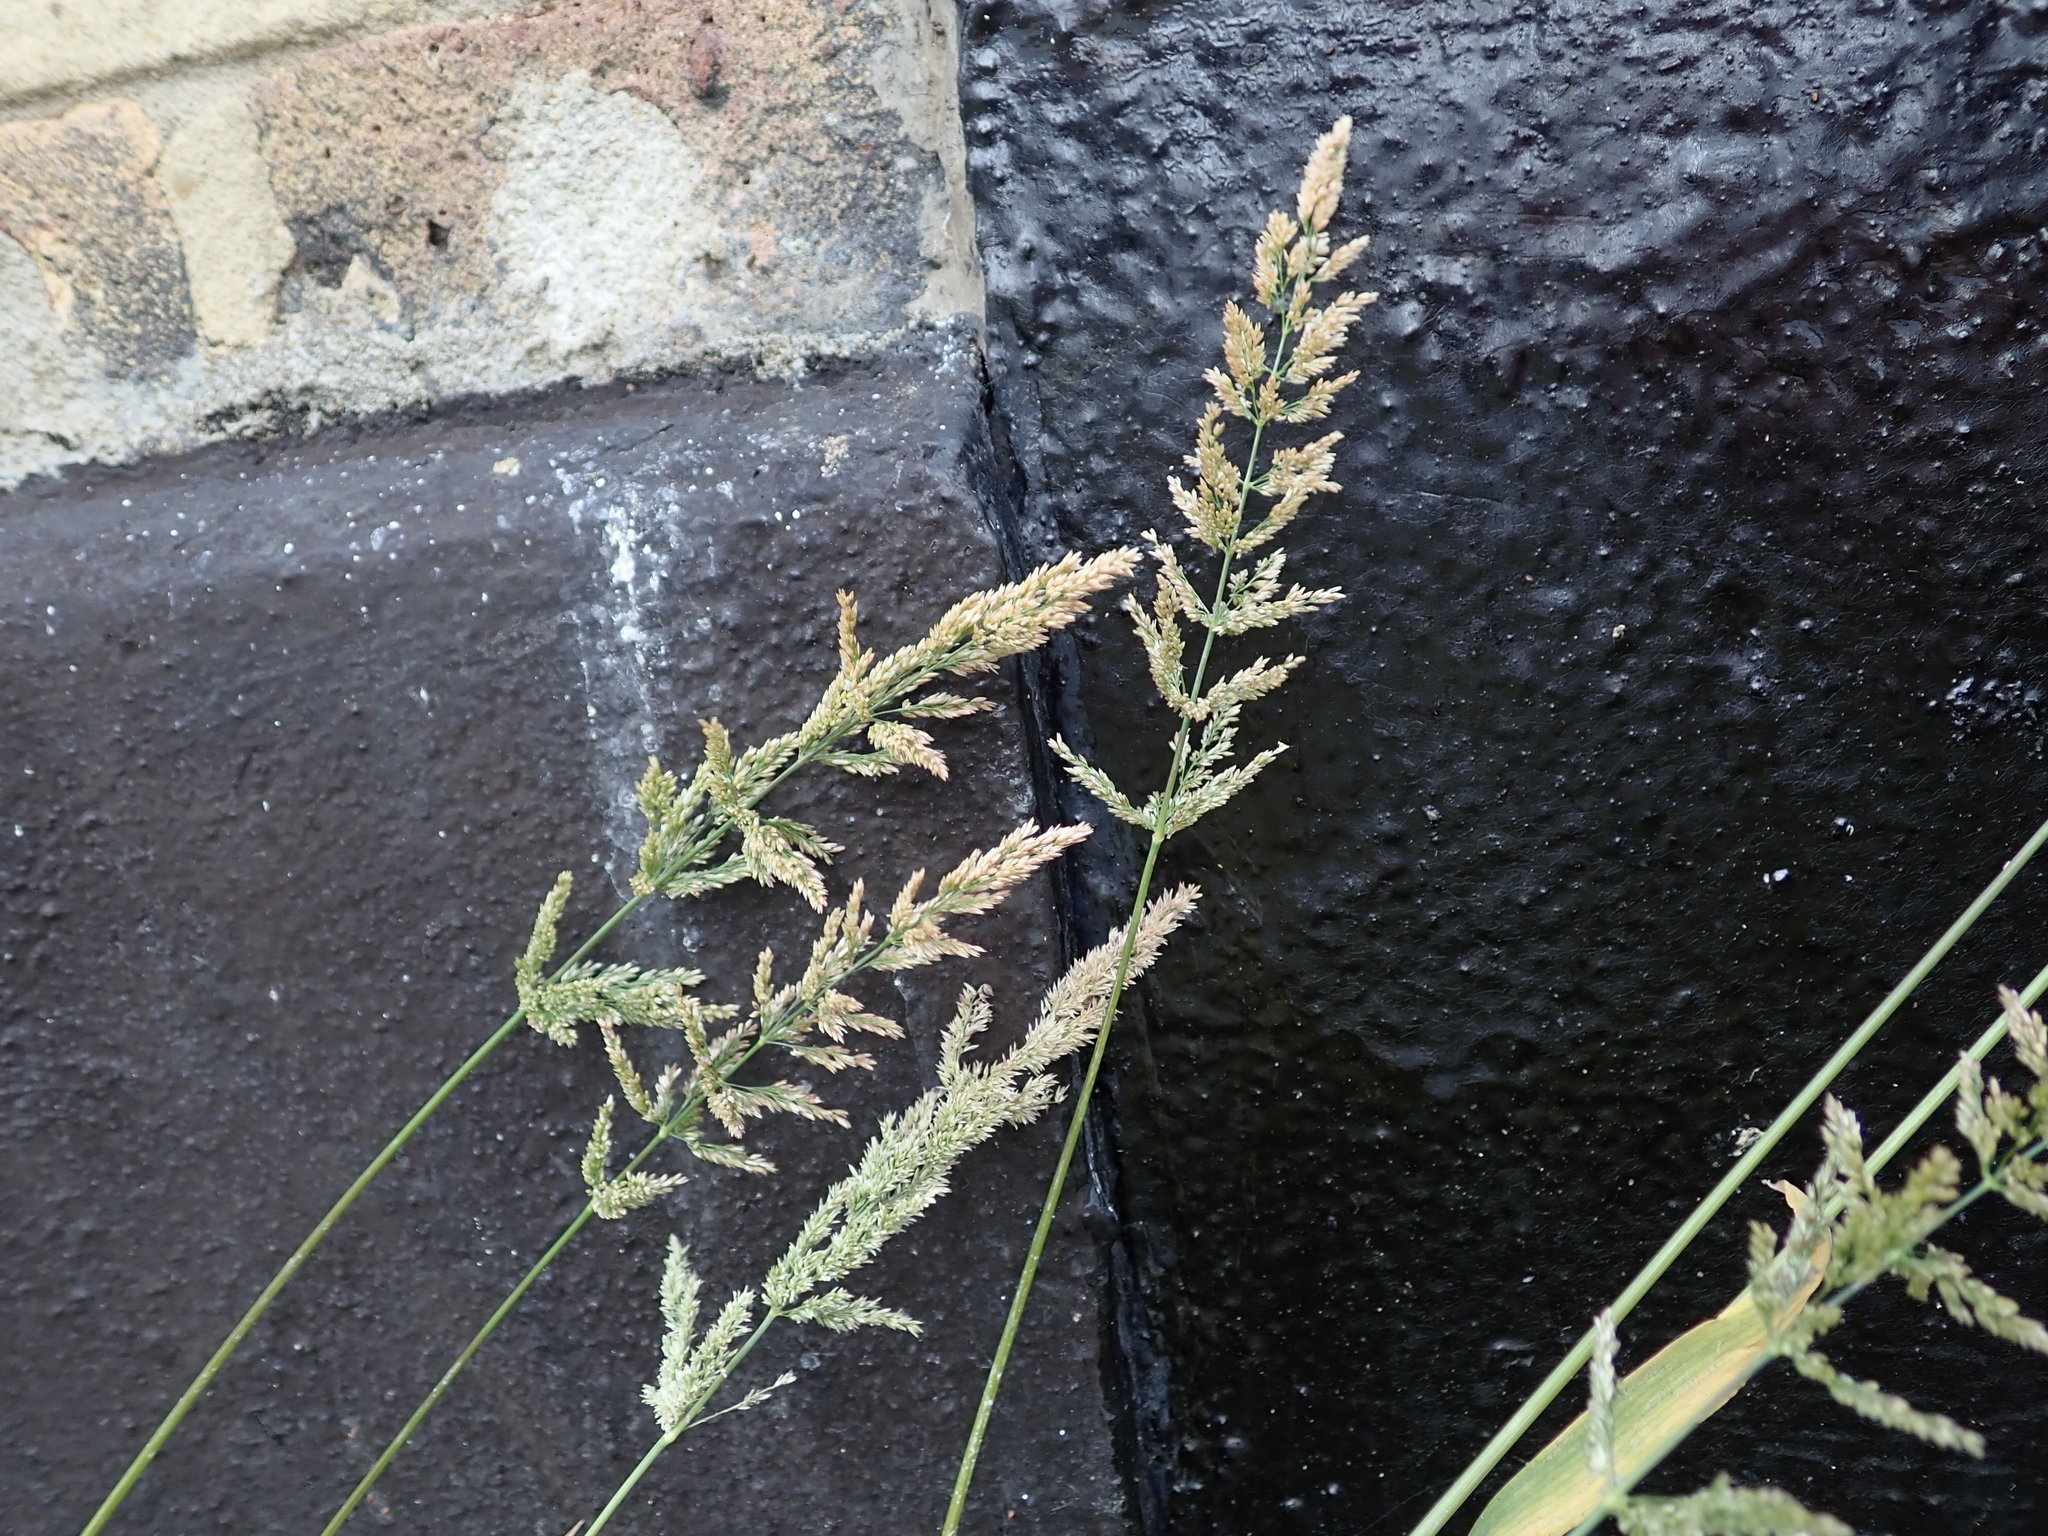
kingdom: Plantae
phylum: Tracheophyta
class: Liliopsida
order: Poales
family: Poaceae
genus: Polypogon
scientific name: Polypogon viridis
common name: Water bent
